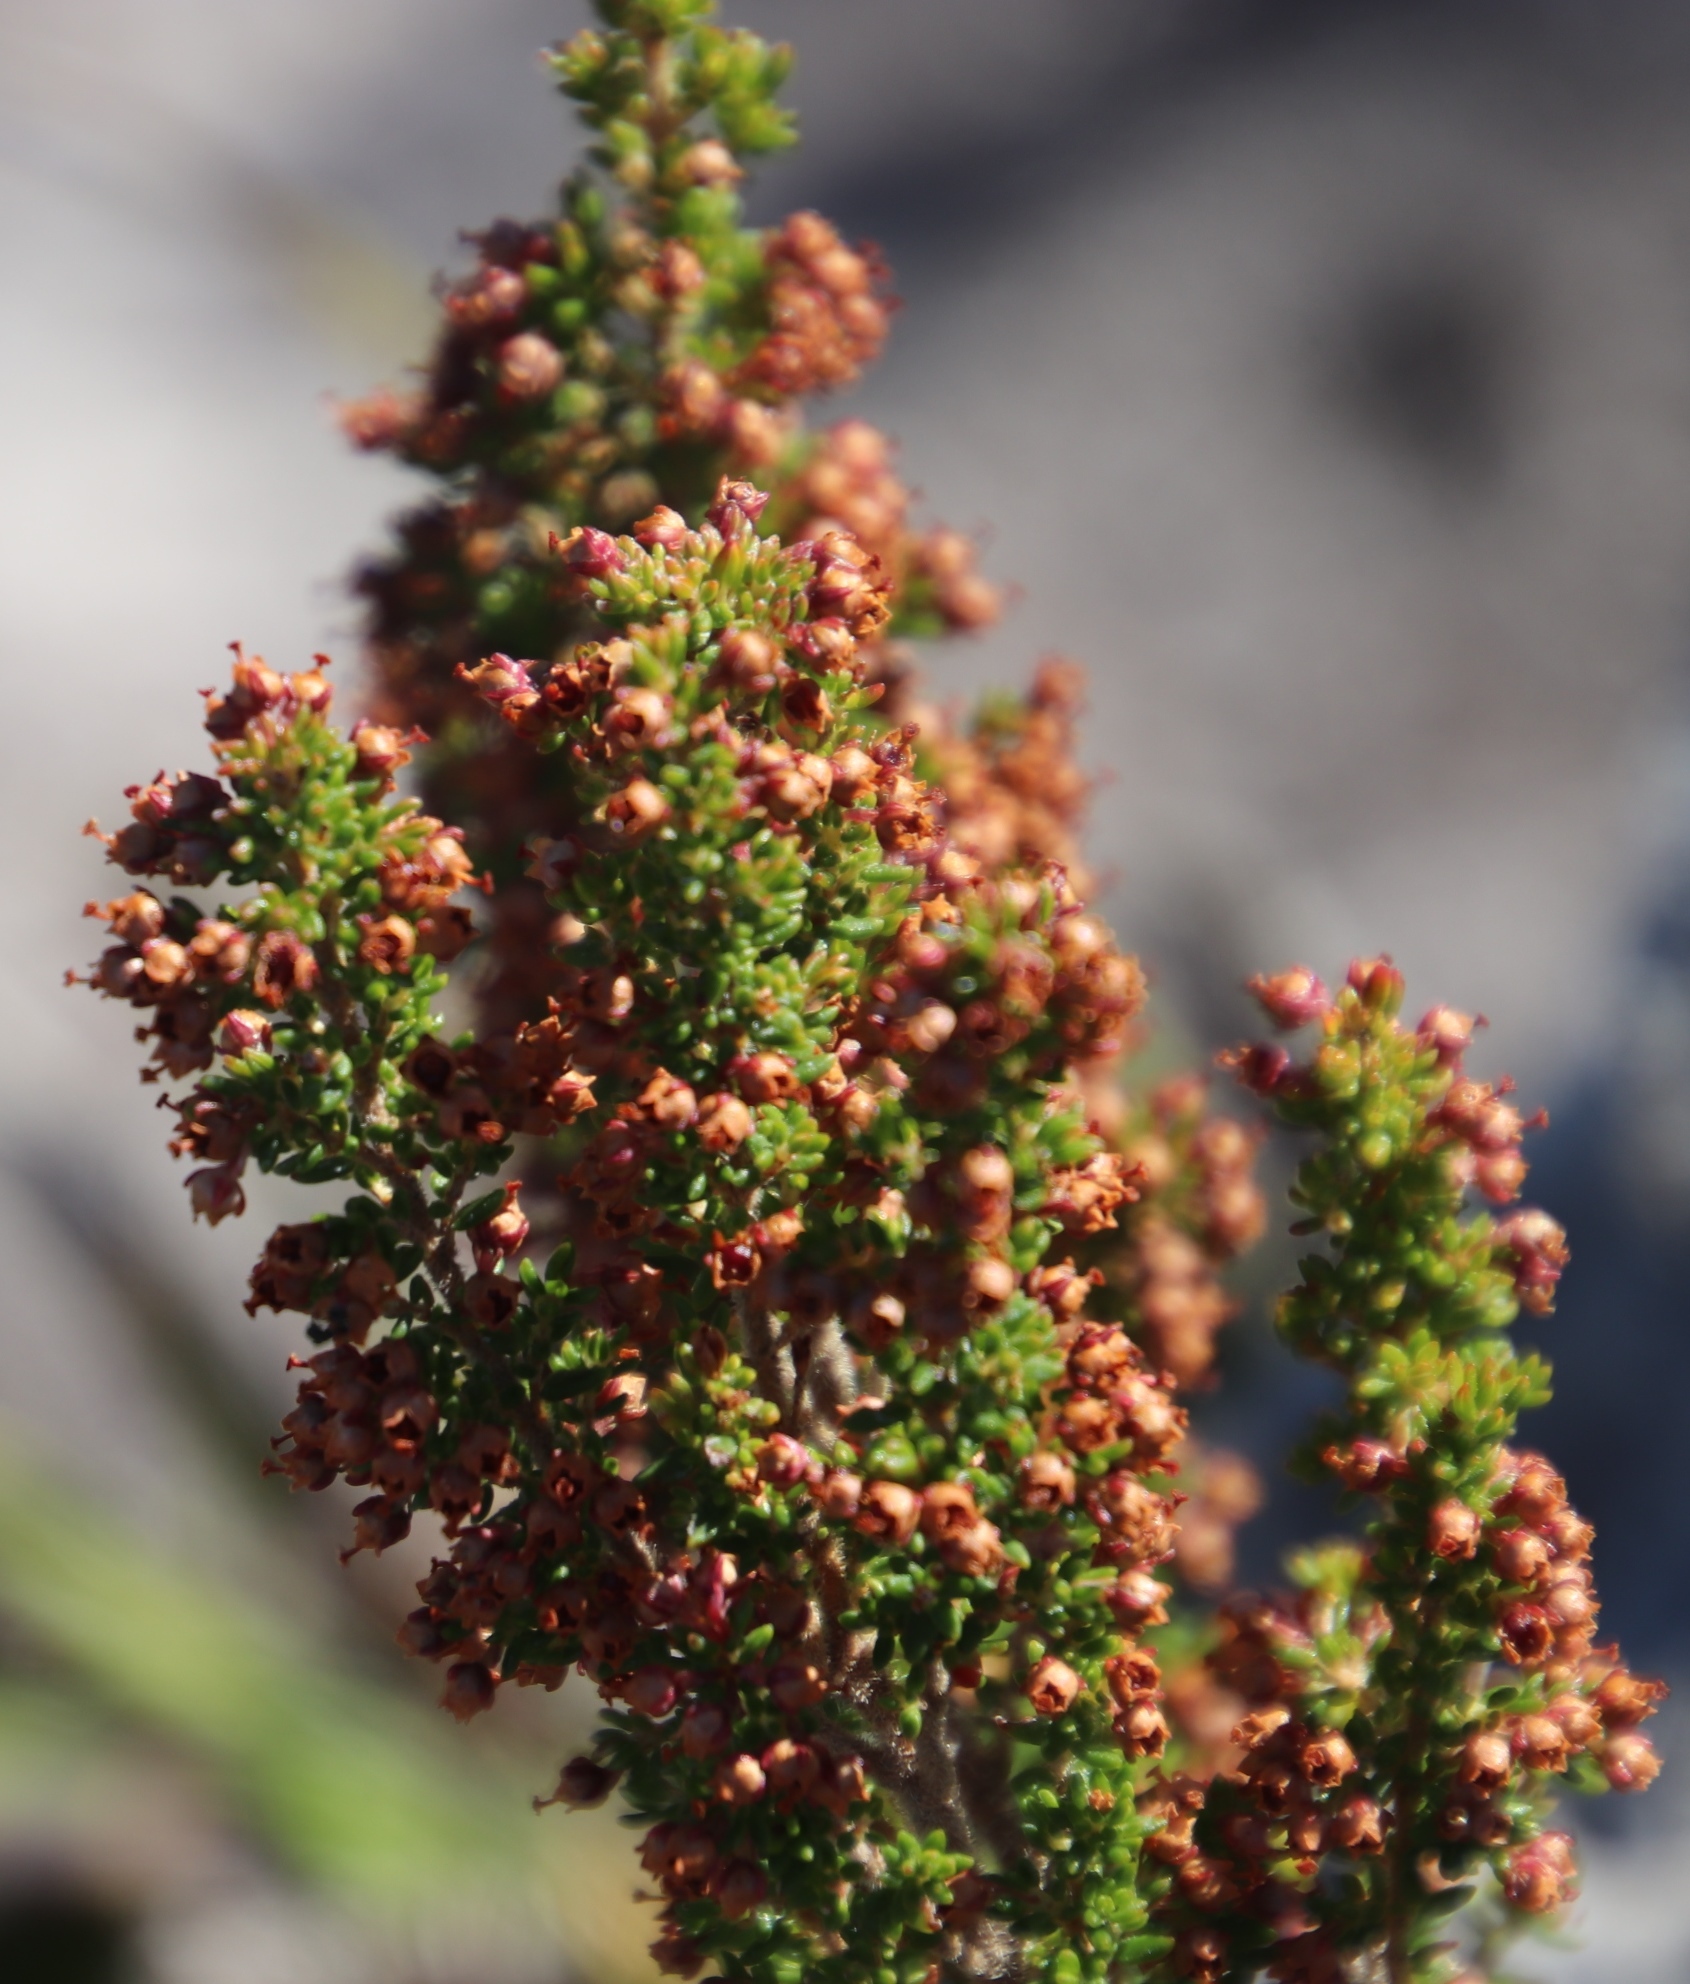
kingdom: Plantae
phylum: Tracheophyta
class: Magnoliopsida
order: Ericales
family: Ericaceae
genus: Erica
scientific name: Erica hispidula
